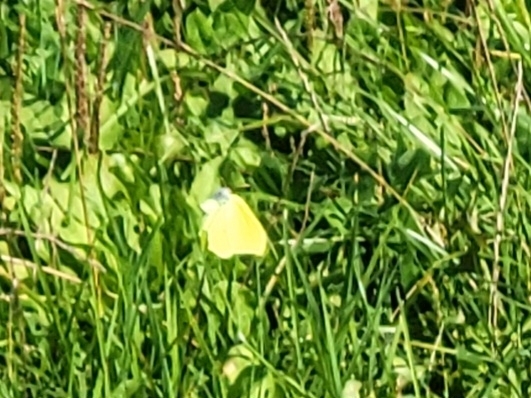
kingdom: Animalia
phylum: Arthropoda
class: Insecta
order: Lepidoptera
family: Pieridae
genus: Gonepteryx
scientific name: Gonepteryx rhamni
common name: Brimstone
